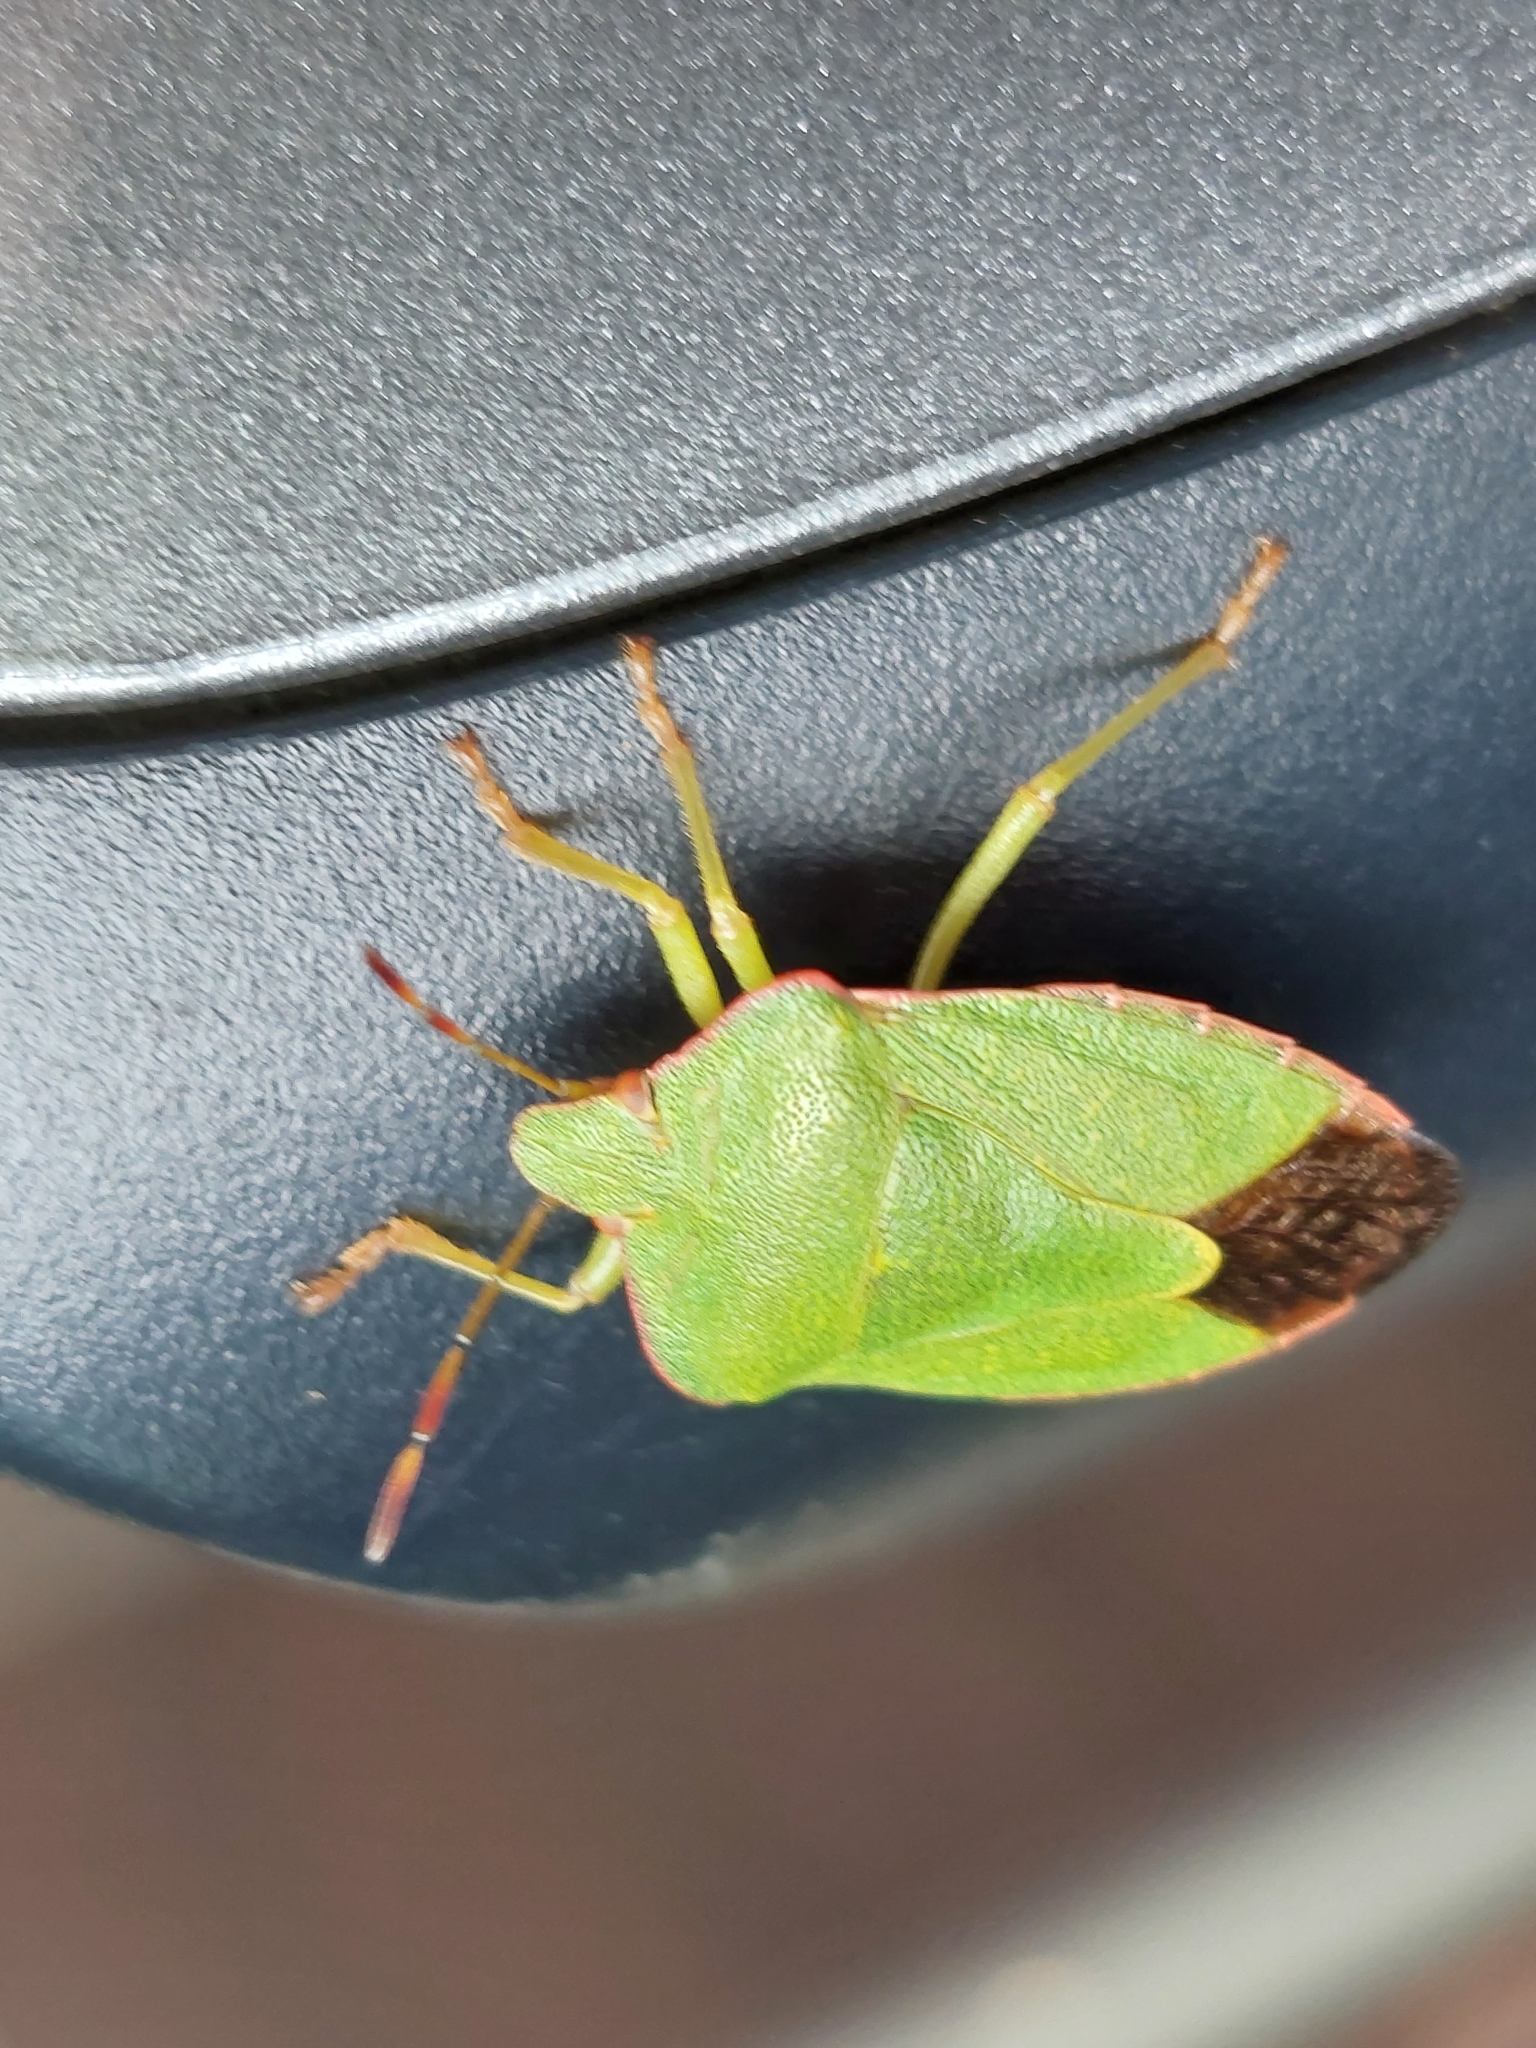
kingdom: Animalia
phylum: Arthropoda
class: Insecta
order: Hemiptera
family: Pentatomidae
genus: Palomena
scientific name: Palomena prasina
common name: Green shieldbug
